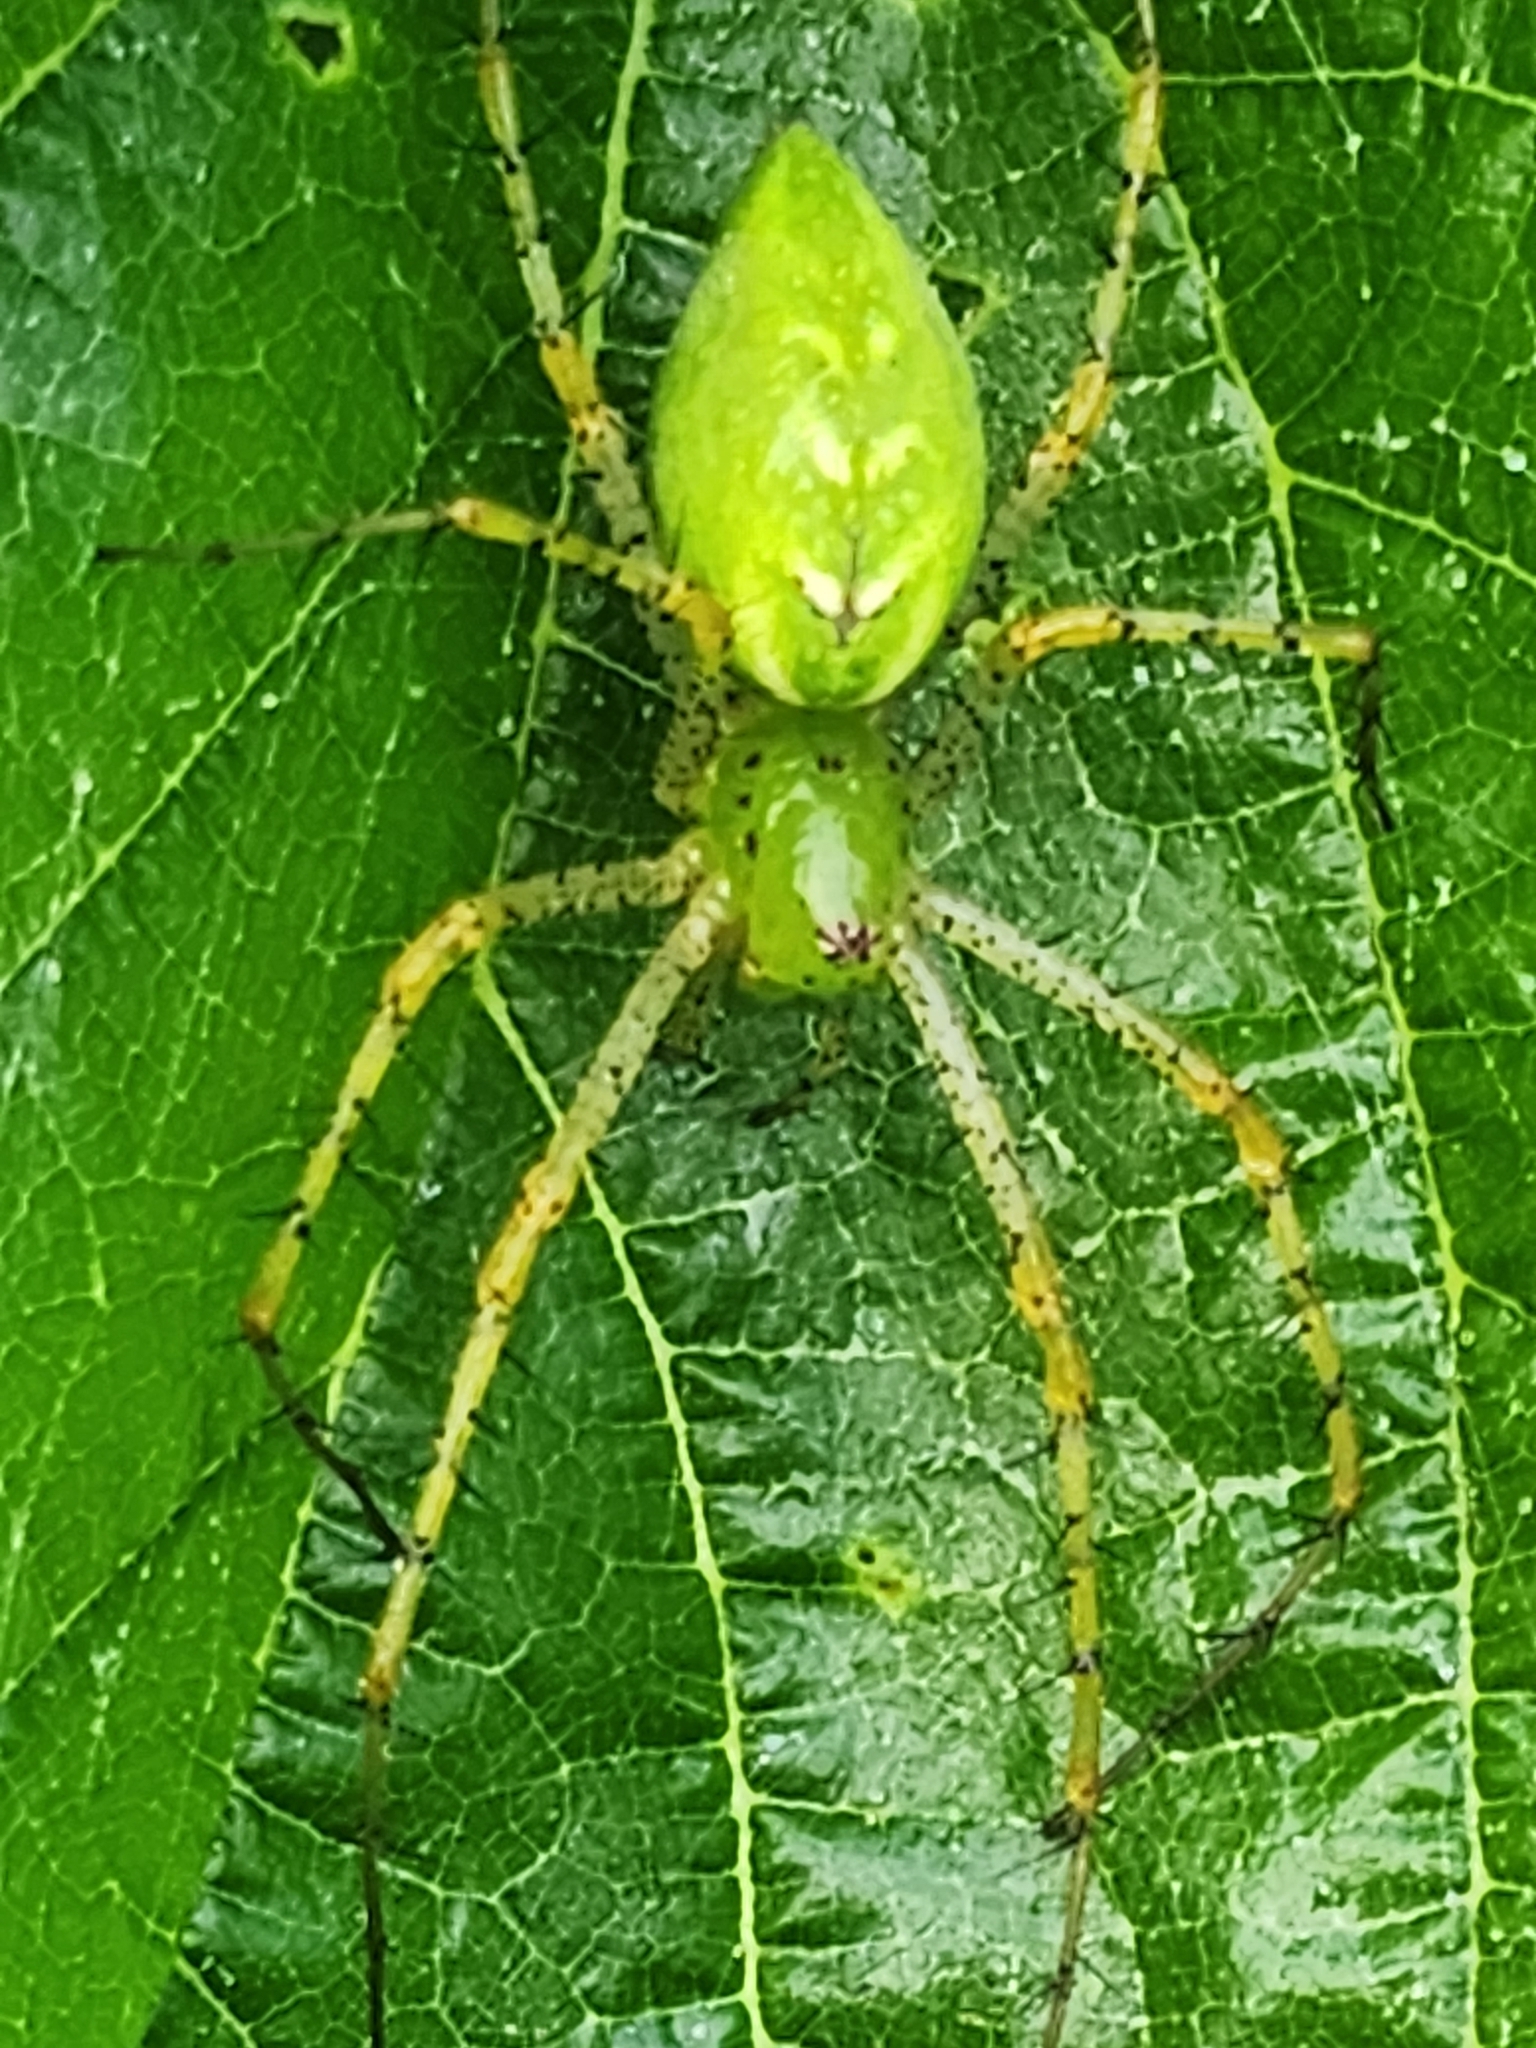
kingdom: Animalia
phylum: Arthropoda
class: Arachnida
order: Araneae
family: Oxyopidae
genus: Peucetia
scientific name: Peucetia viridans
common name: Lynx spiders
